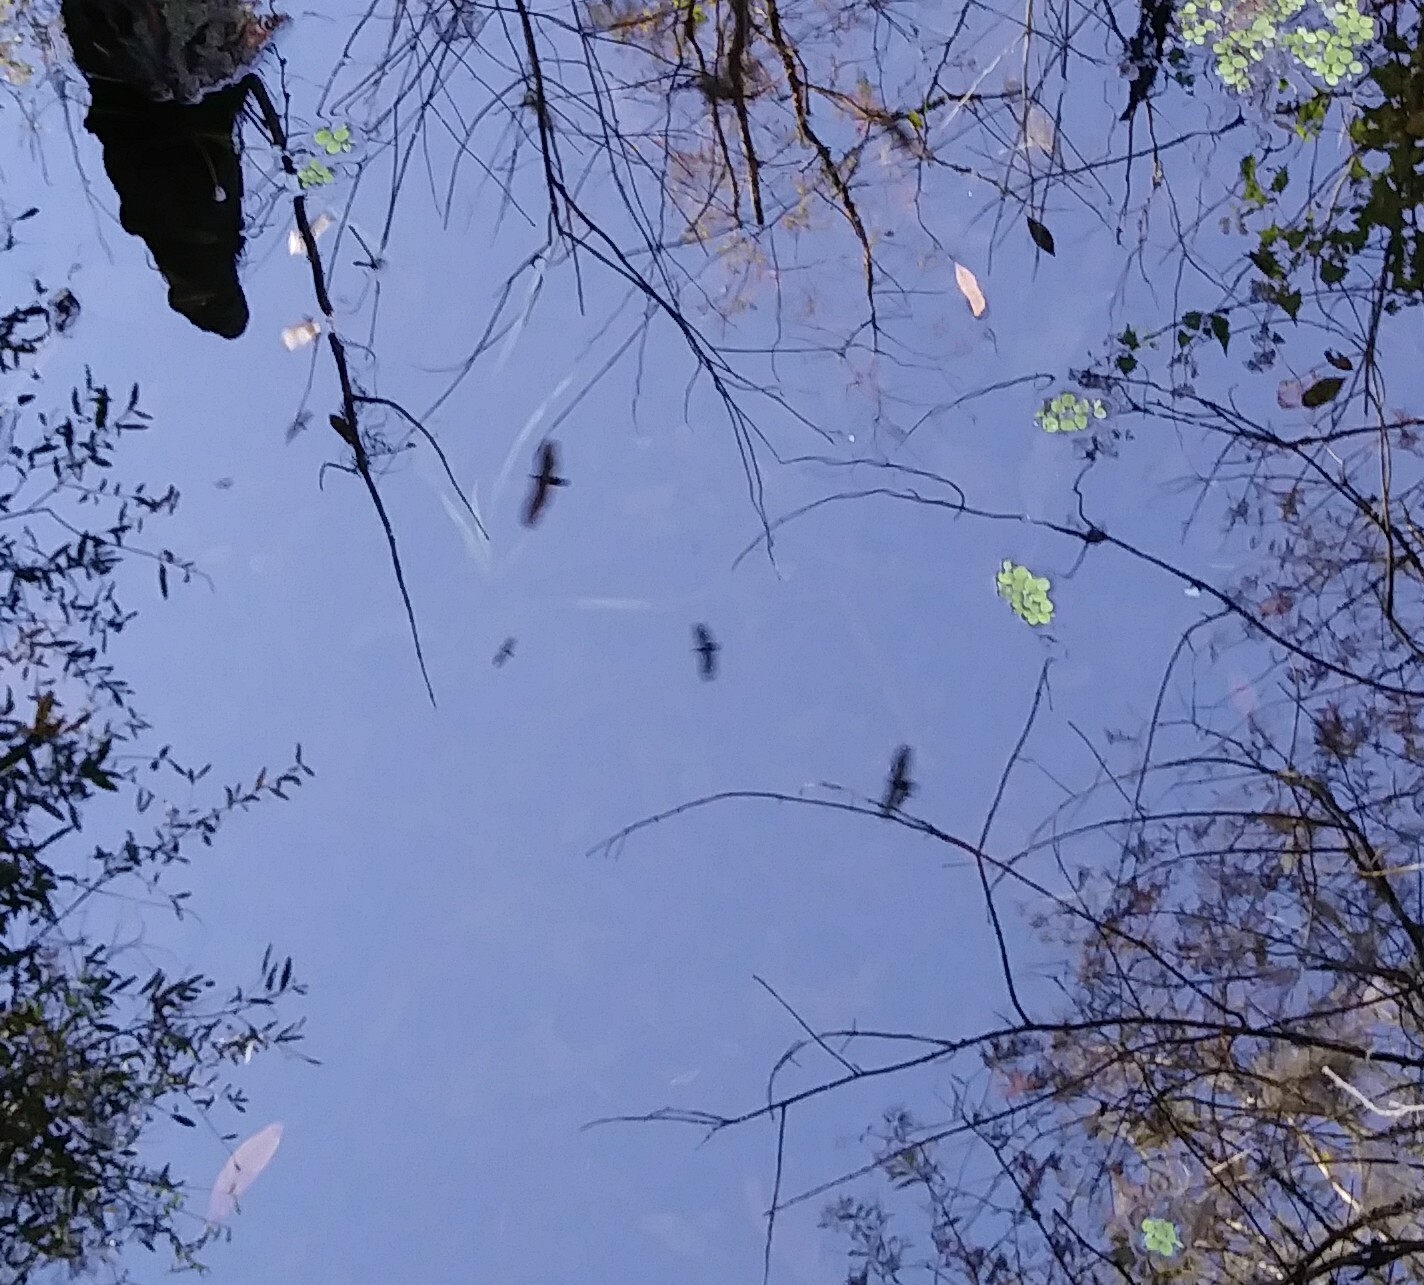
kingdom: Animalia
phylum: Chordata
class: Aves
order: Accipitriformes
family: Cathartidae
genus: Cathartes
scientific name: Cathartes aura
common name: Turkey vulture
